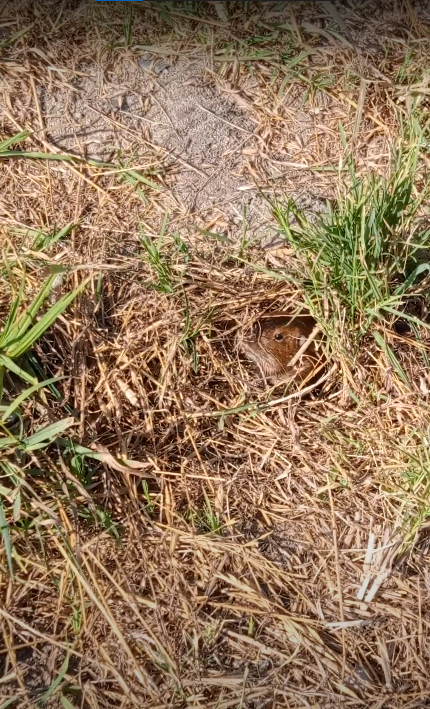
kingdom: Animalia
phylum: Chordata
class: Mammalia
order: Rodentia
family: Geomyidae
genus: Thomomys
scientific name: Thomomys bottae
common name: Botta's pocket gopher
